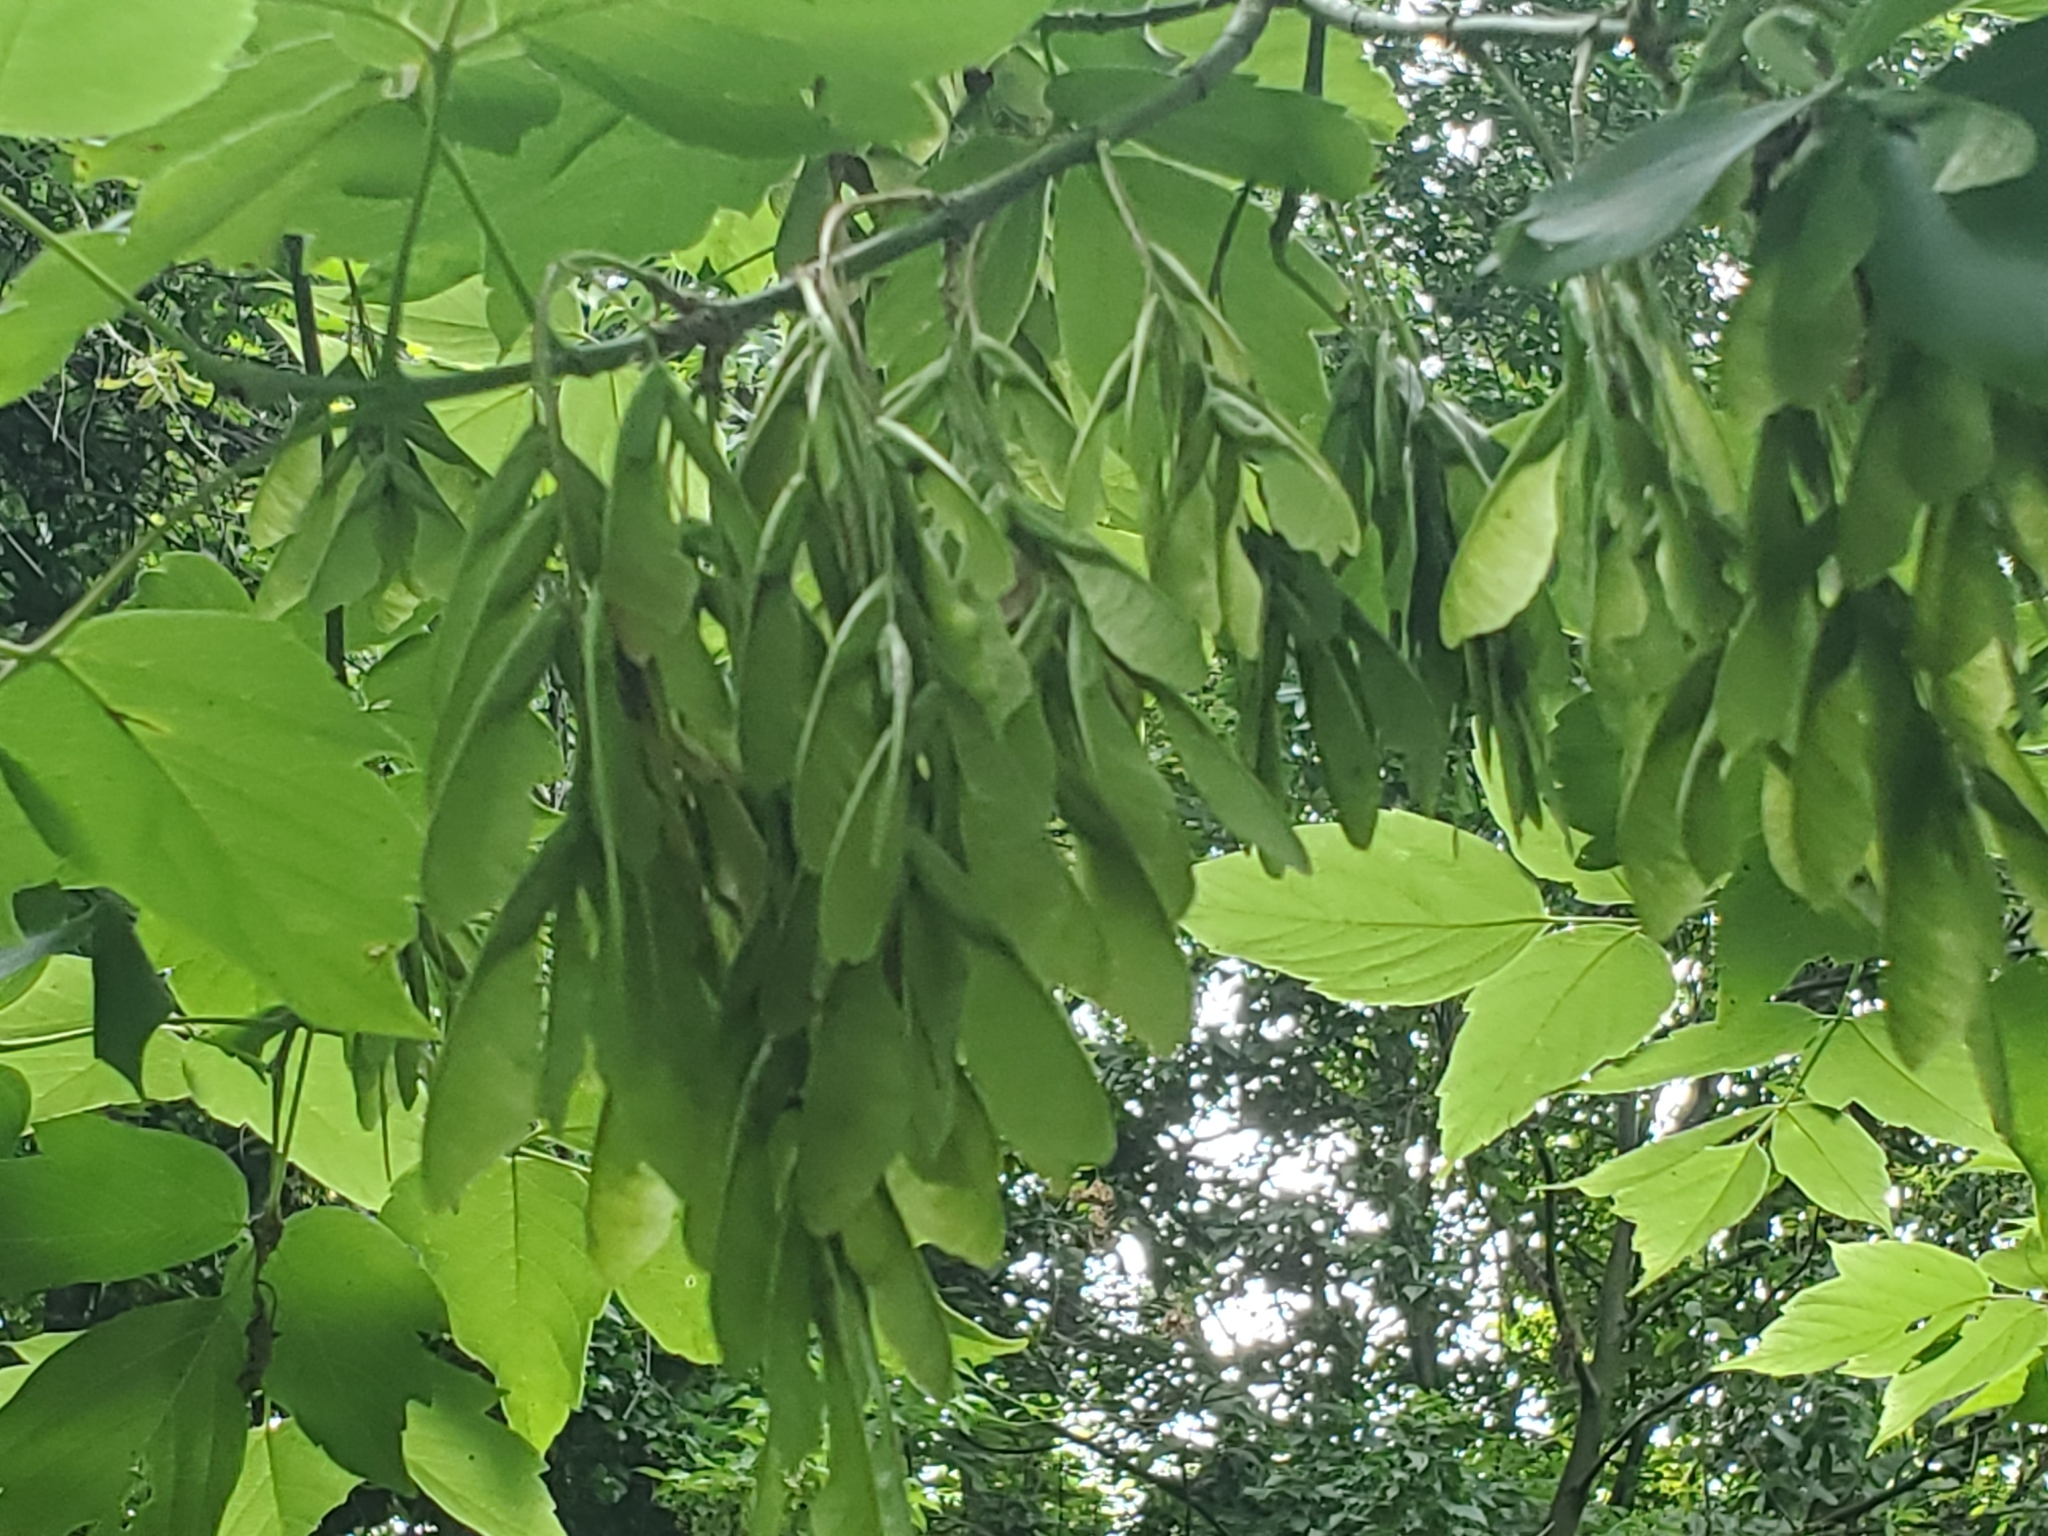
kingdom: Plantae
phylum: Tracheophyta
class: Magnoliopsida
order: Sapindales
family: Sapindaceae
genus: Acer
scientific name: Acer negundo
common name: Ashleaf maple
